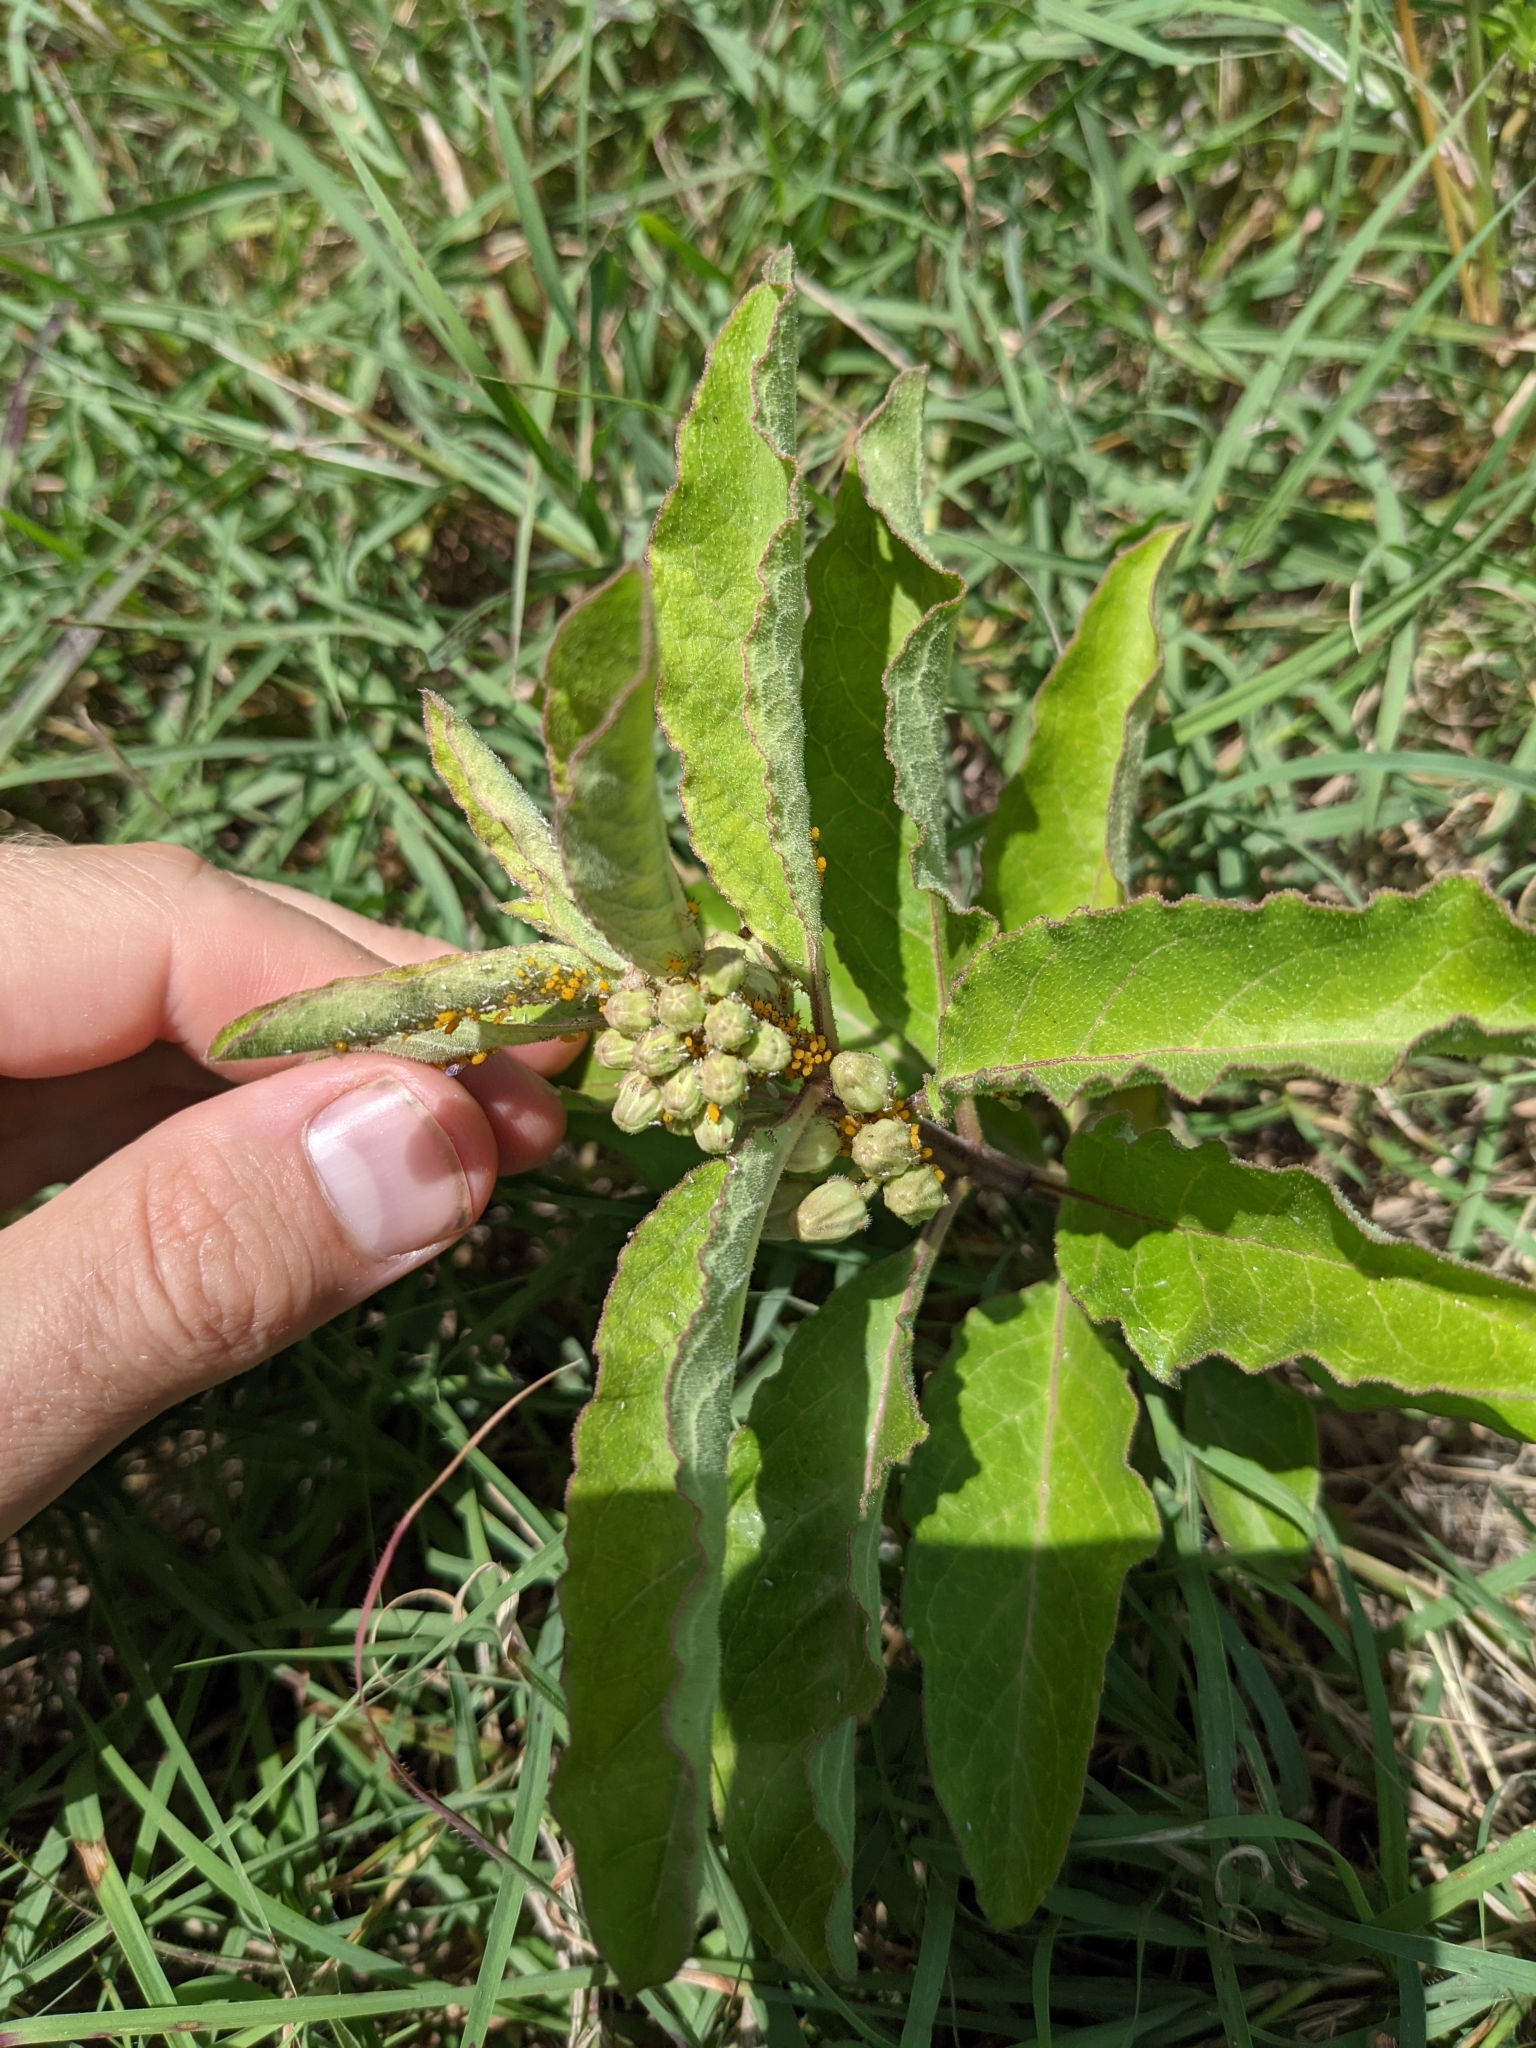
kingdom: Plantae
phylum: Tracheophyta
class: Magnoliopsida
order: Gentianales
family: Apocynaceae
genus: Asclepias
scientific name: Asclepias oenotheroides
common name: Zizotes milkweed
